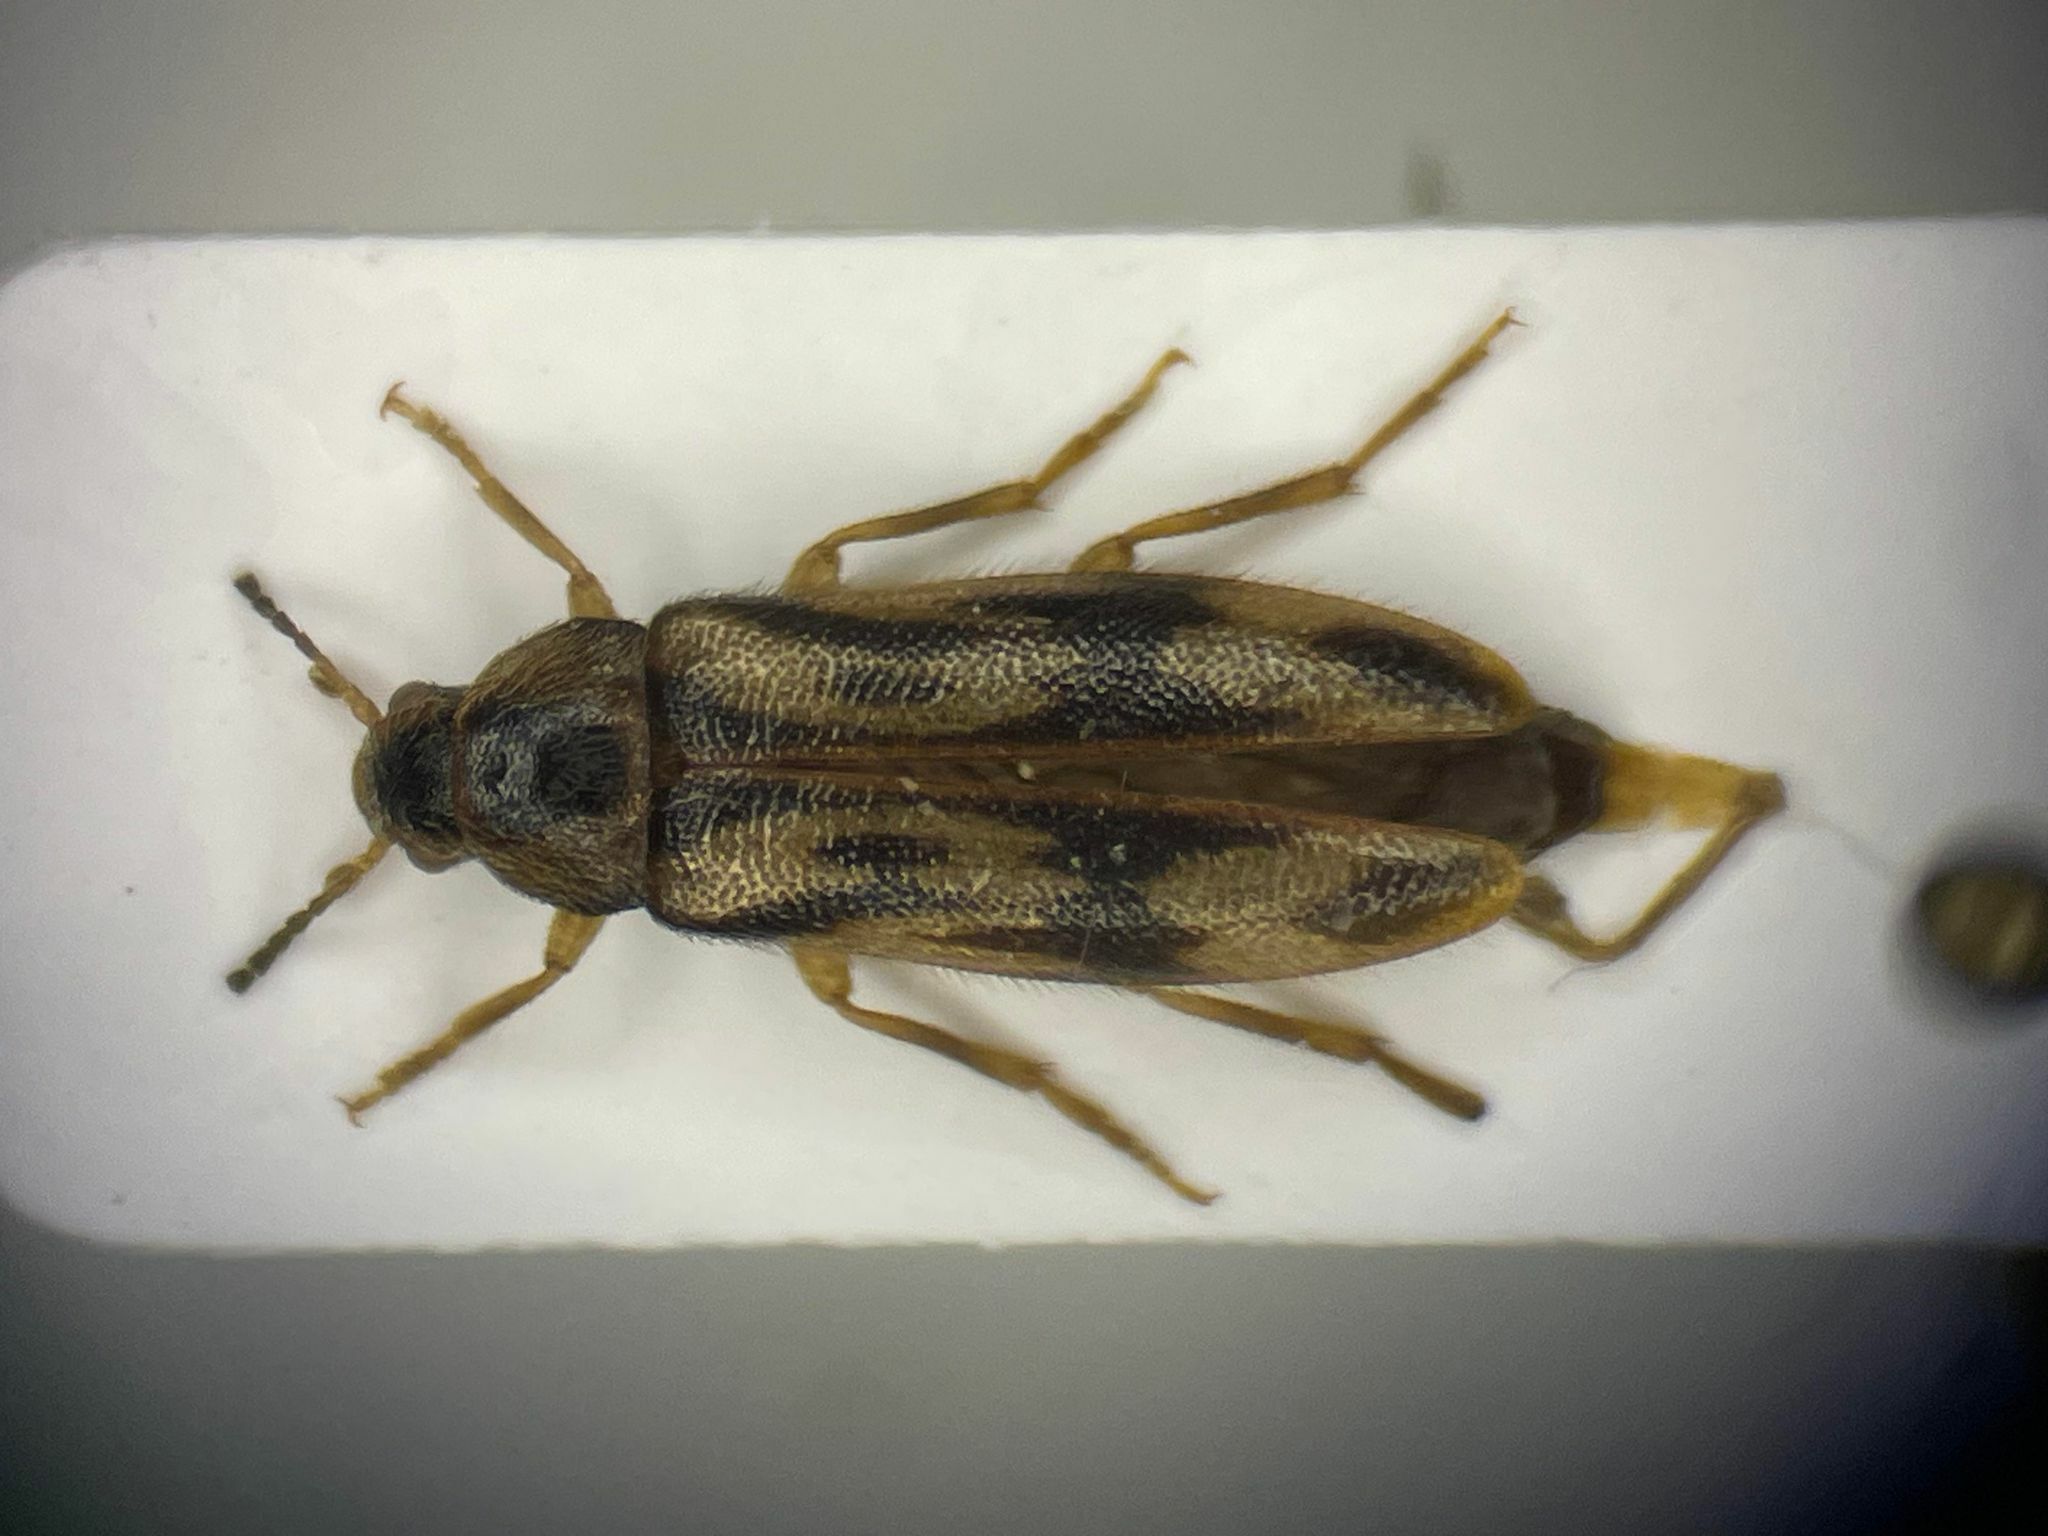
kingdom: Animalia
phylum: Arthropoda
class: Insecta
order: Coleoptera
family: Melandryidae
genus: Prothalpia
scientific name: Prothalpia undata
